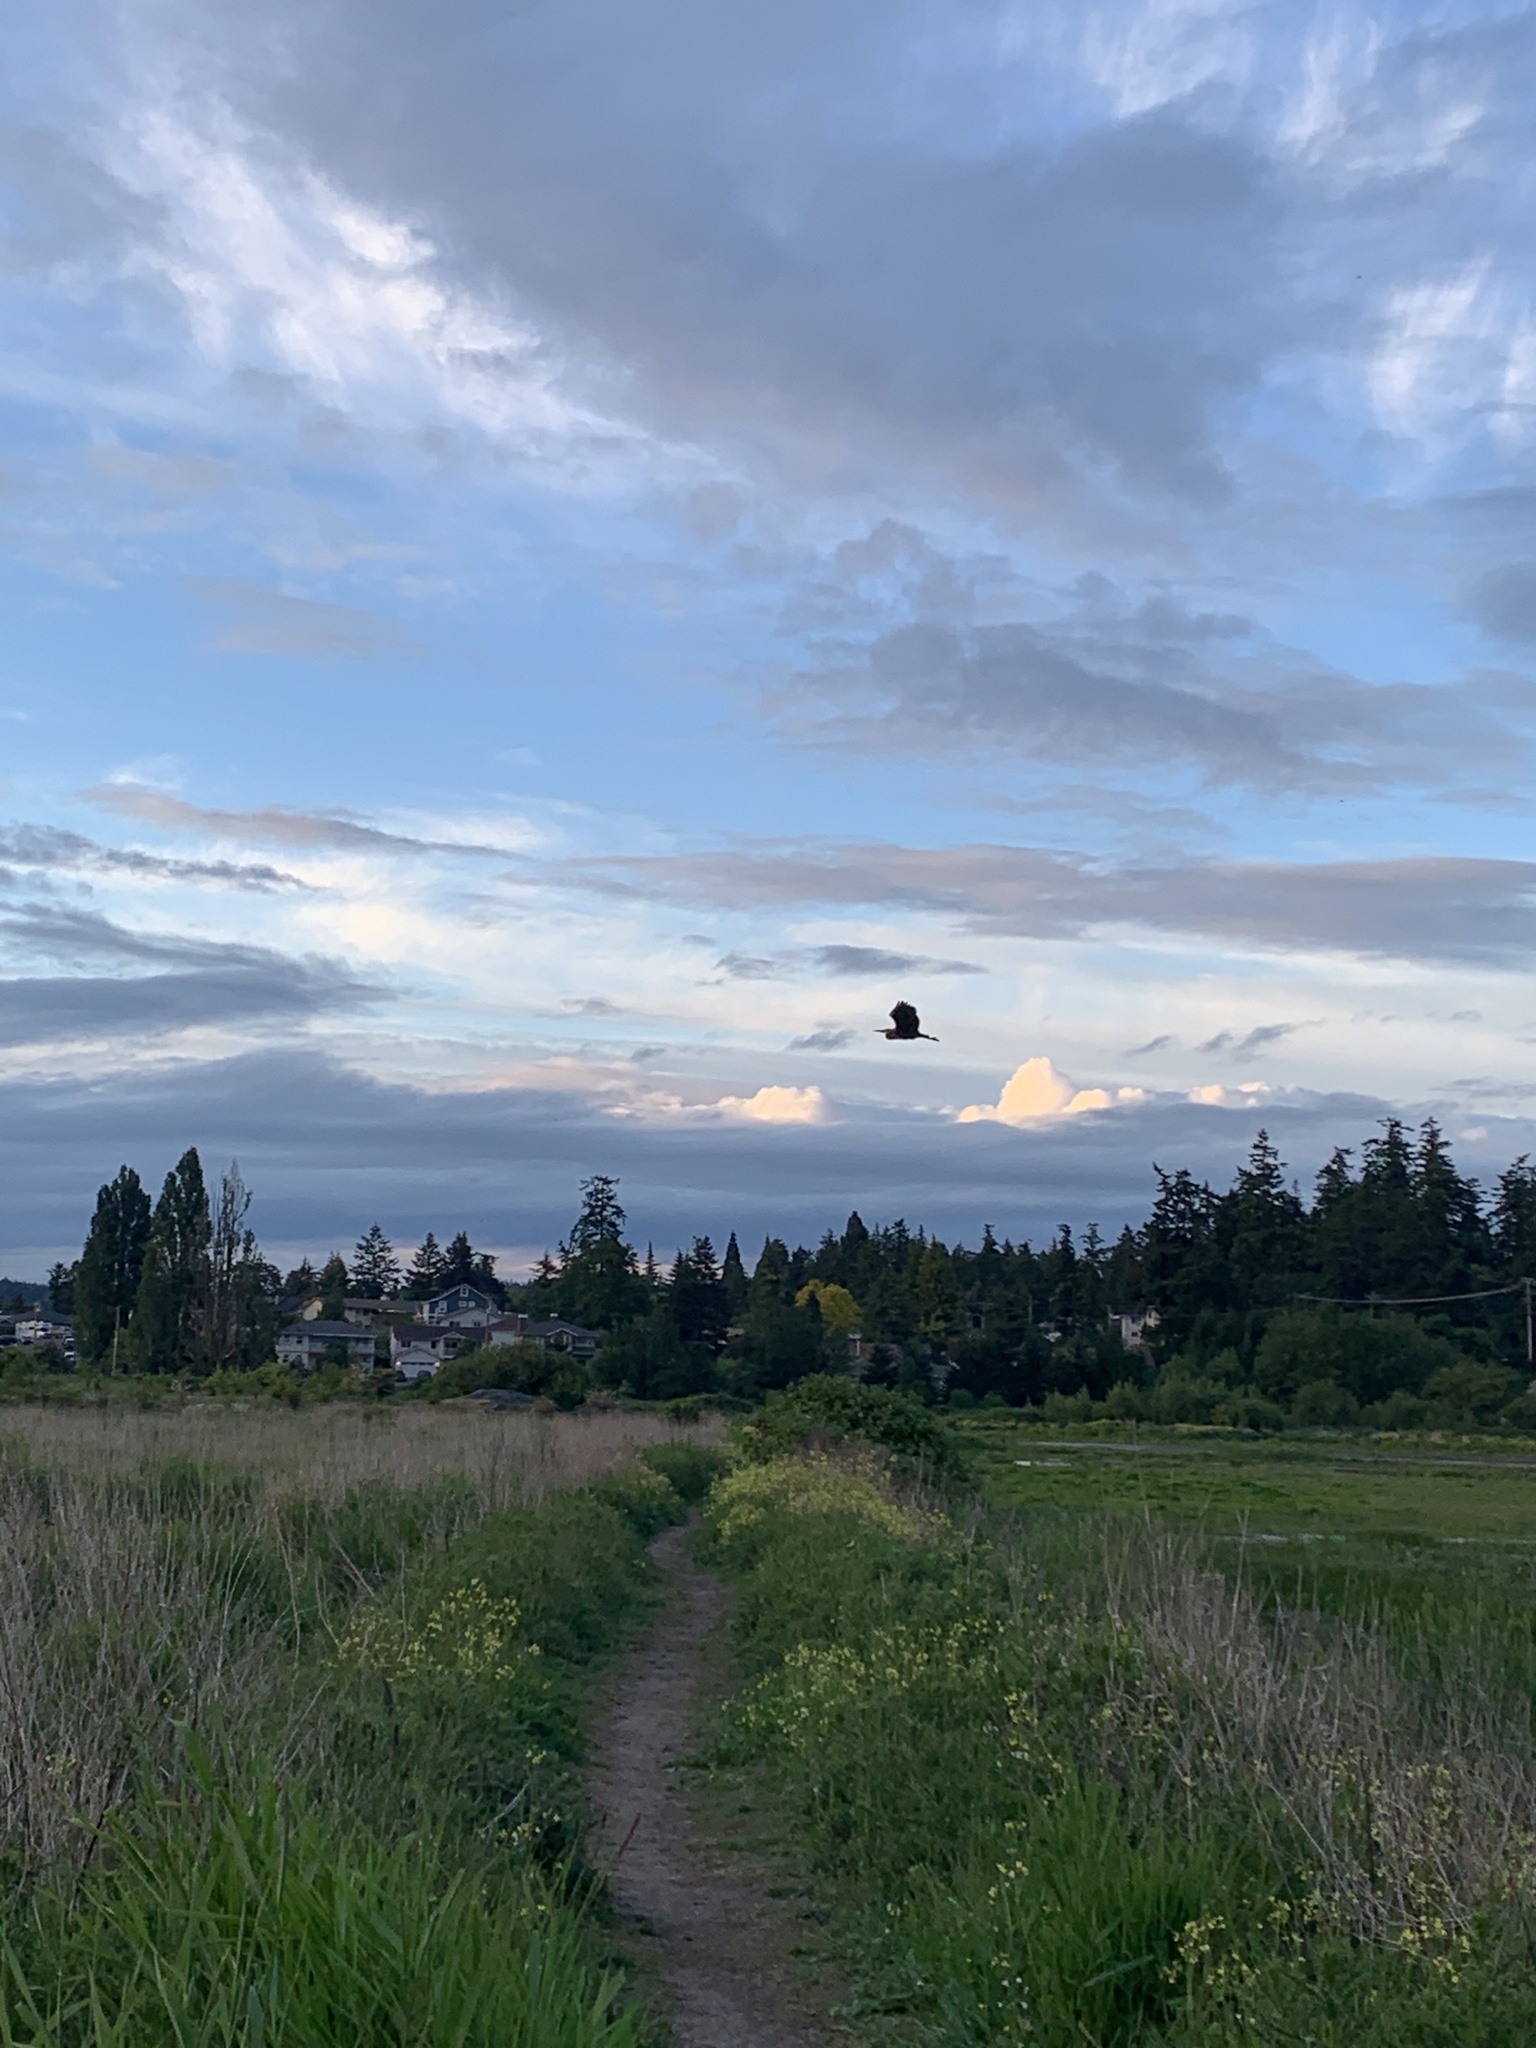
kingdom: Animalia
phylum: Chordata
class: Aves
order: Pelecaniformes
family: Ardeidae
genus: Ardea
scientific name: Ardea herodias
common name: Great blue heron
